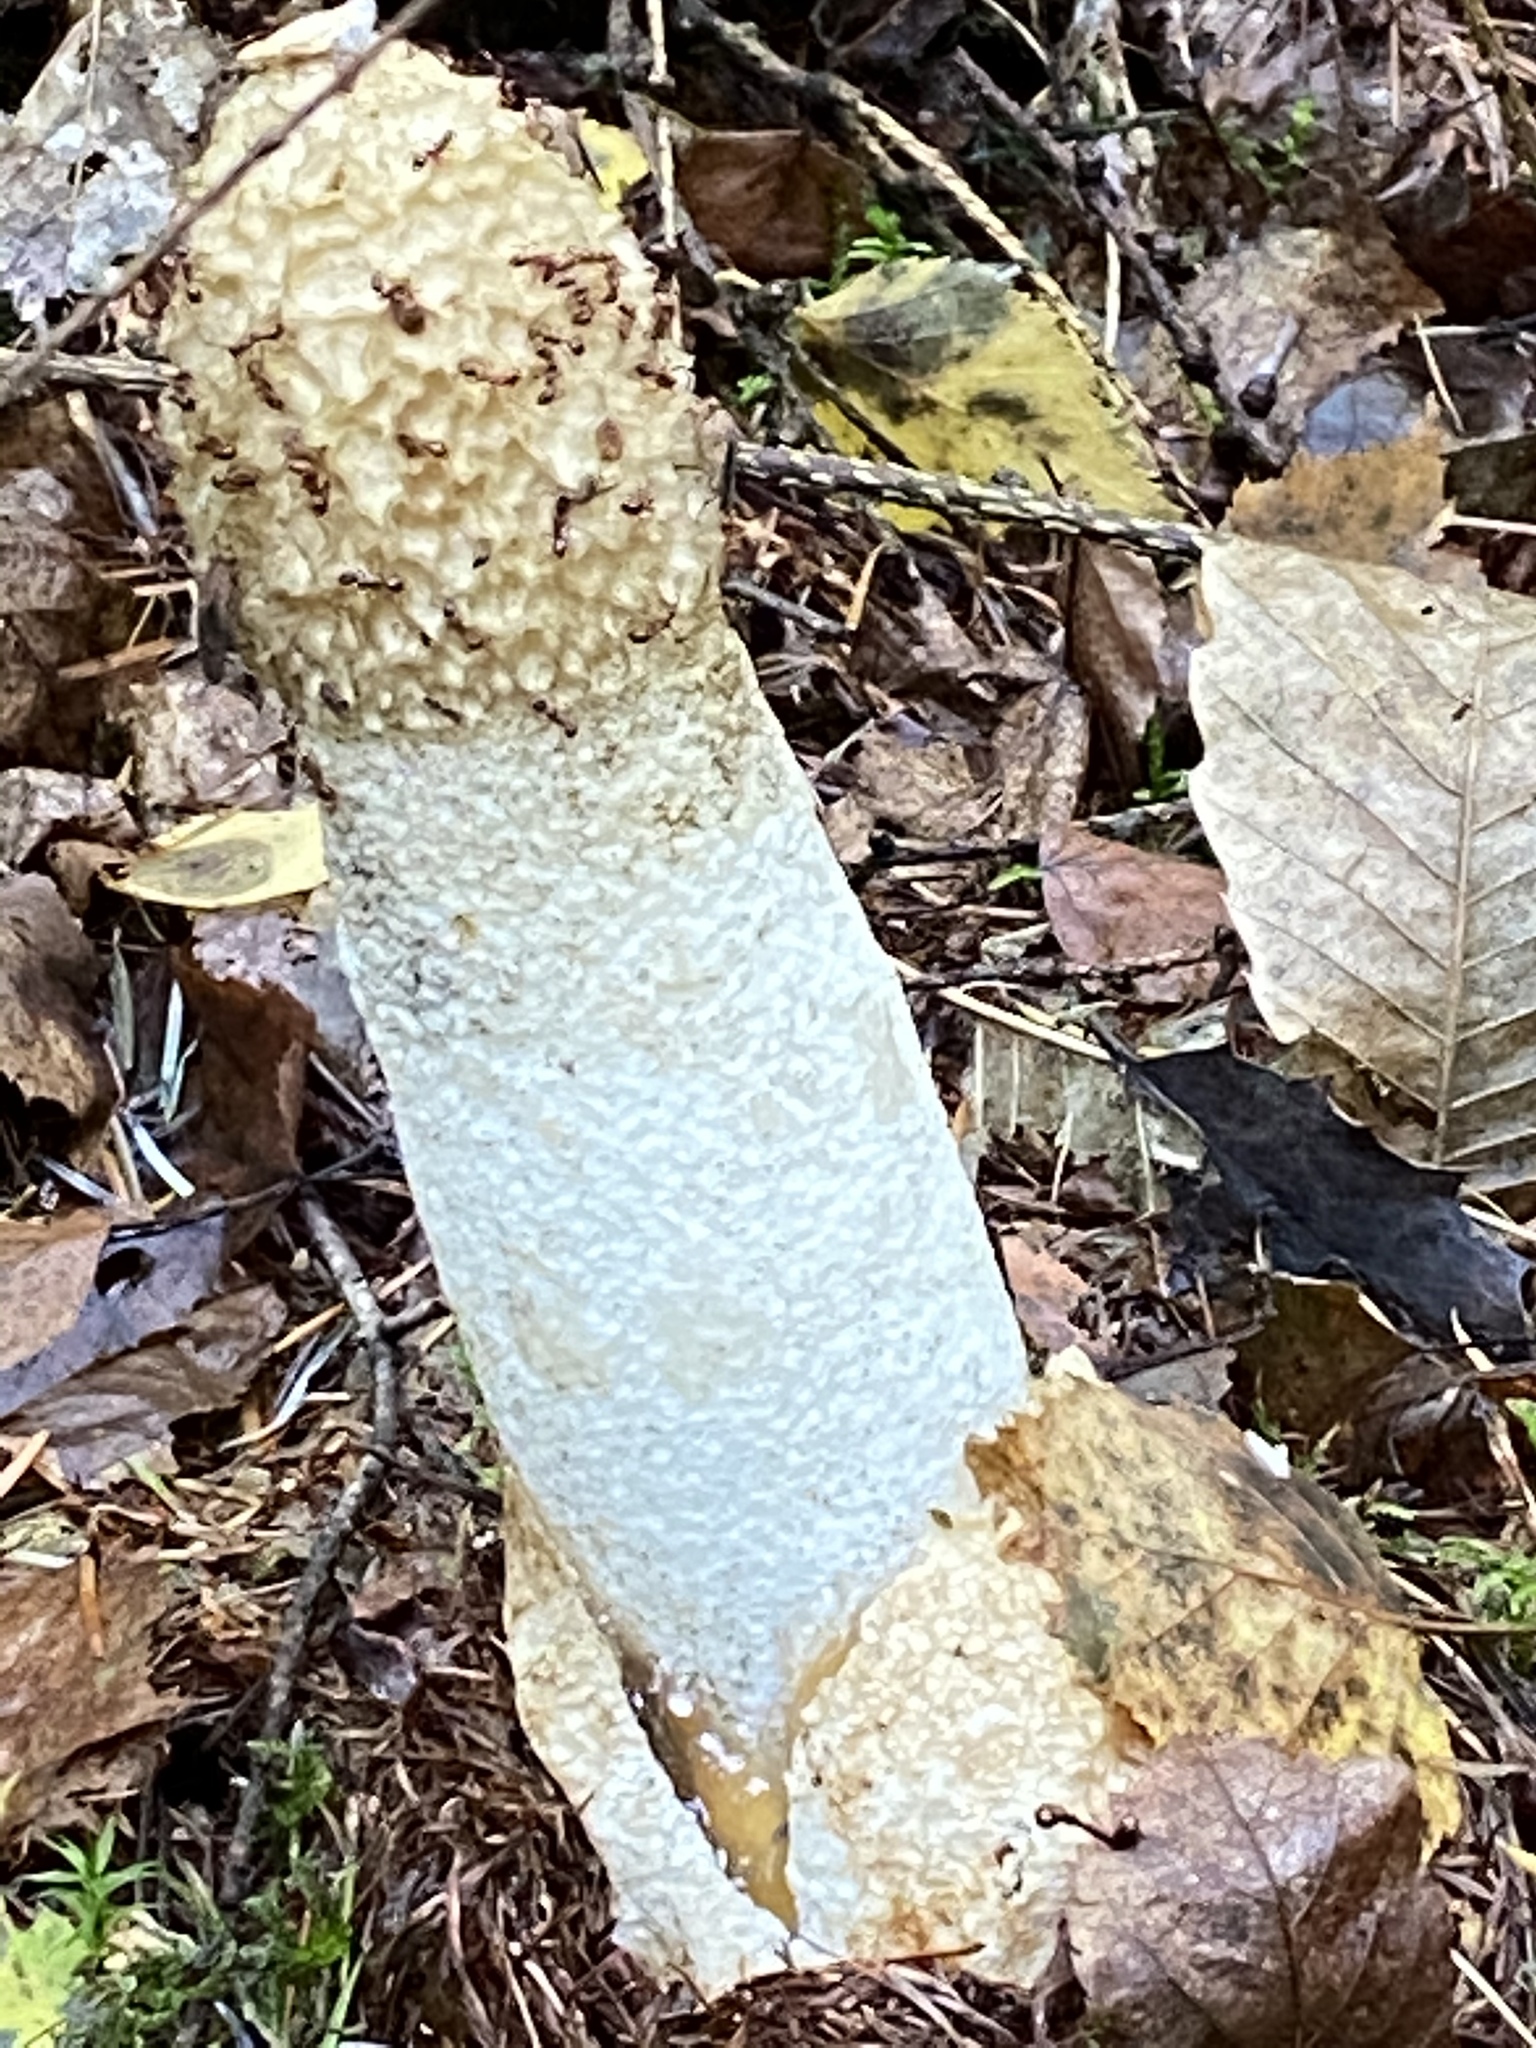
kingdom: Fungi
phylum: Basidiomycota
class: Agaricomycetes
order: Phallales
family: Phallaceae
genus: Phallus
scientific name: Phallus impudicus
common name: Common stinkhorn
